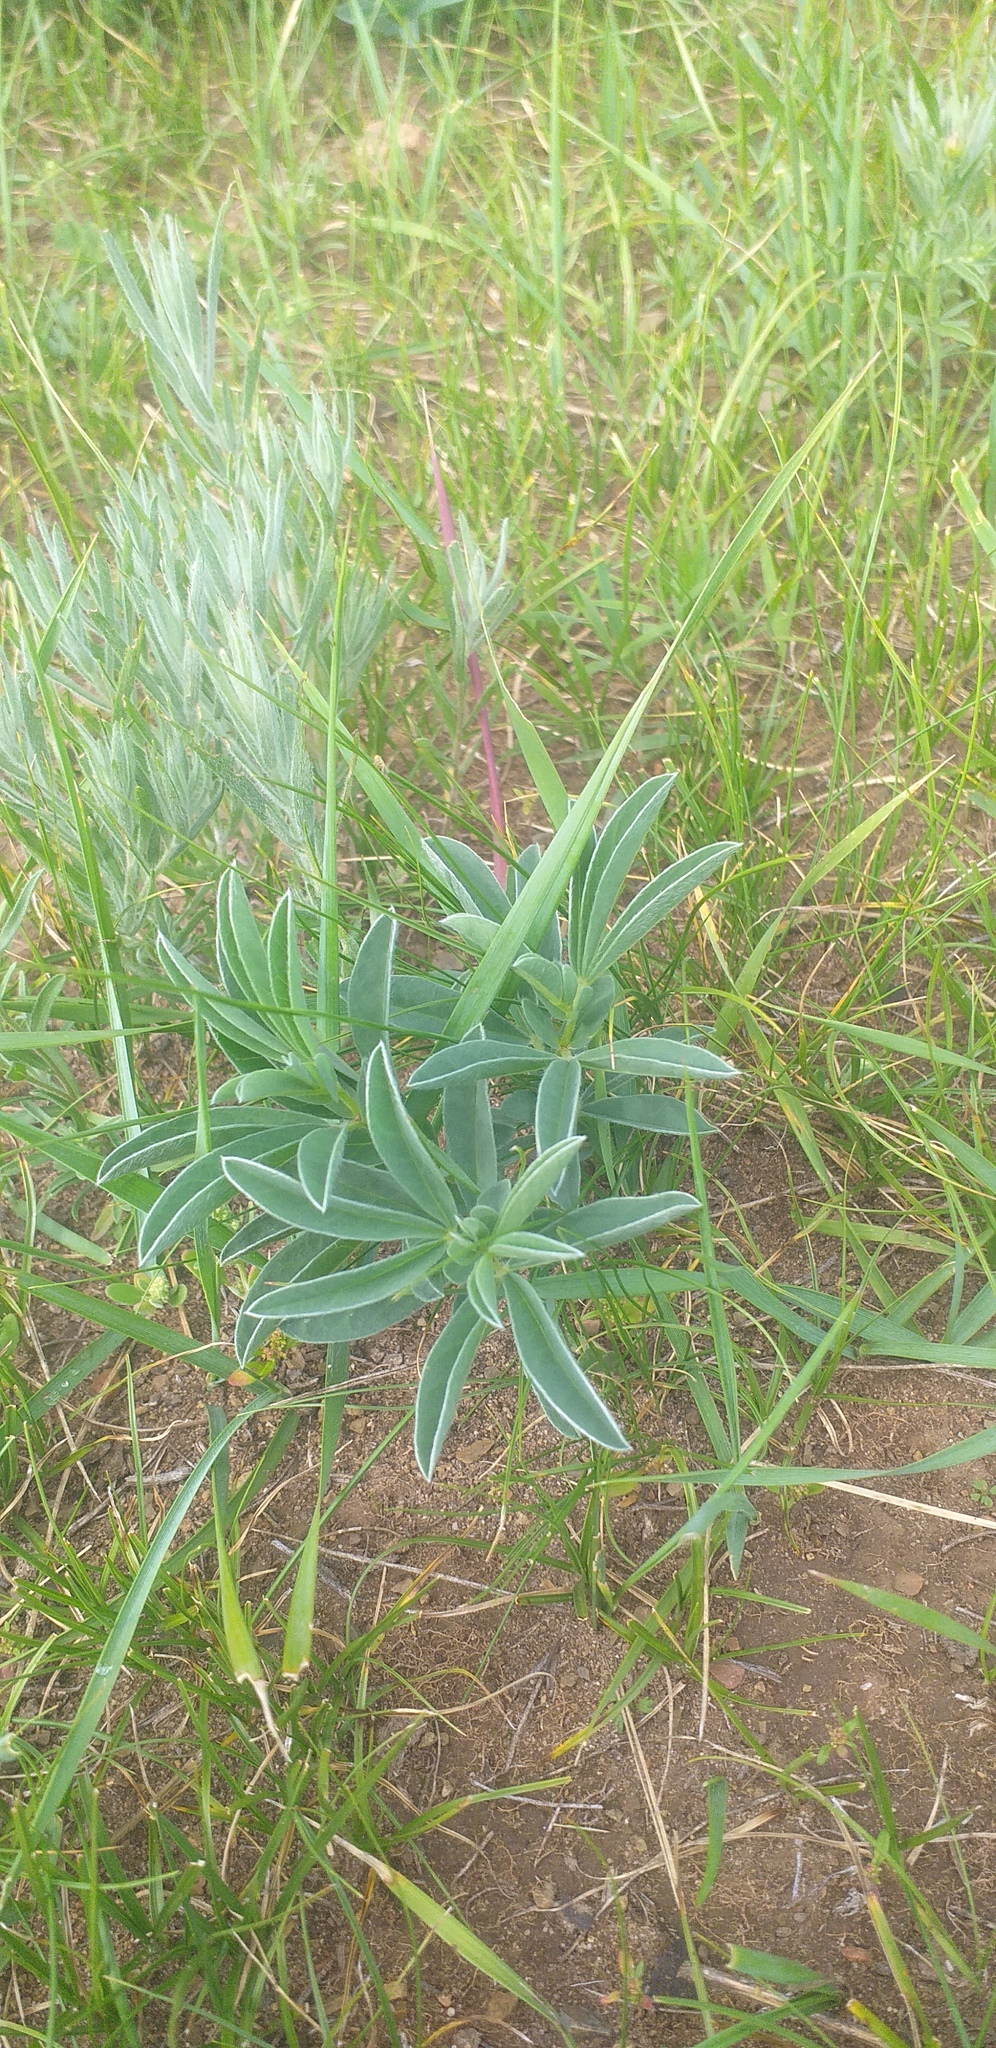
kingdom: Plantae
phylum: Tracheophyta
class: Magnoliopsida
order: Fabales
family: Fabaceae
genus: Thermopsis
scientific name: Thermopsis lanceolata
